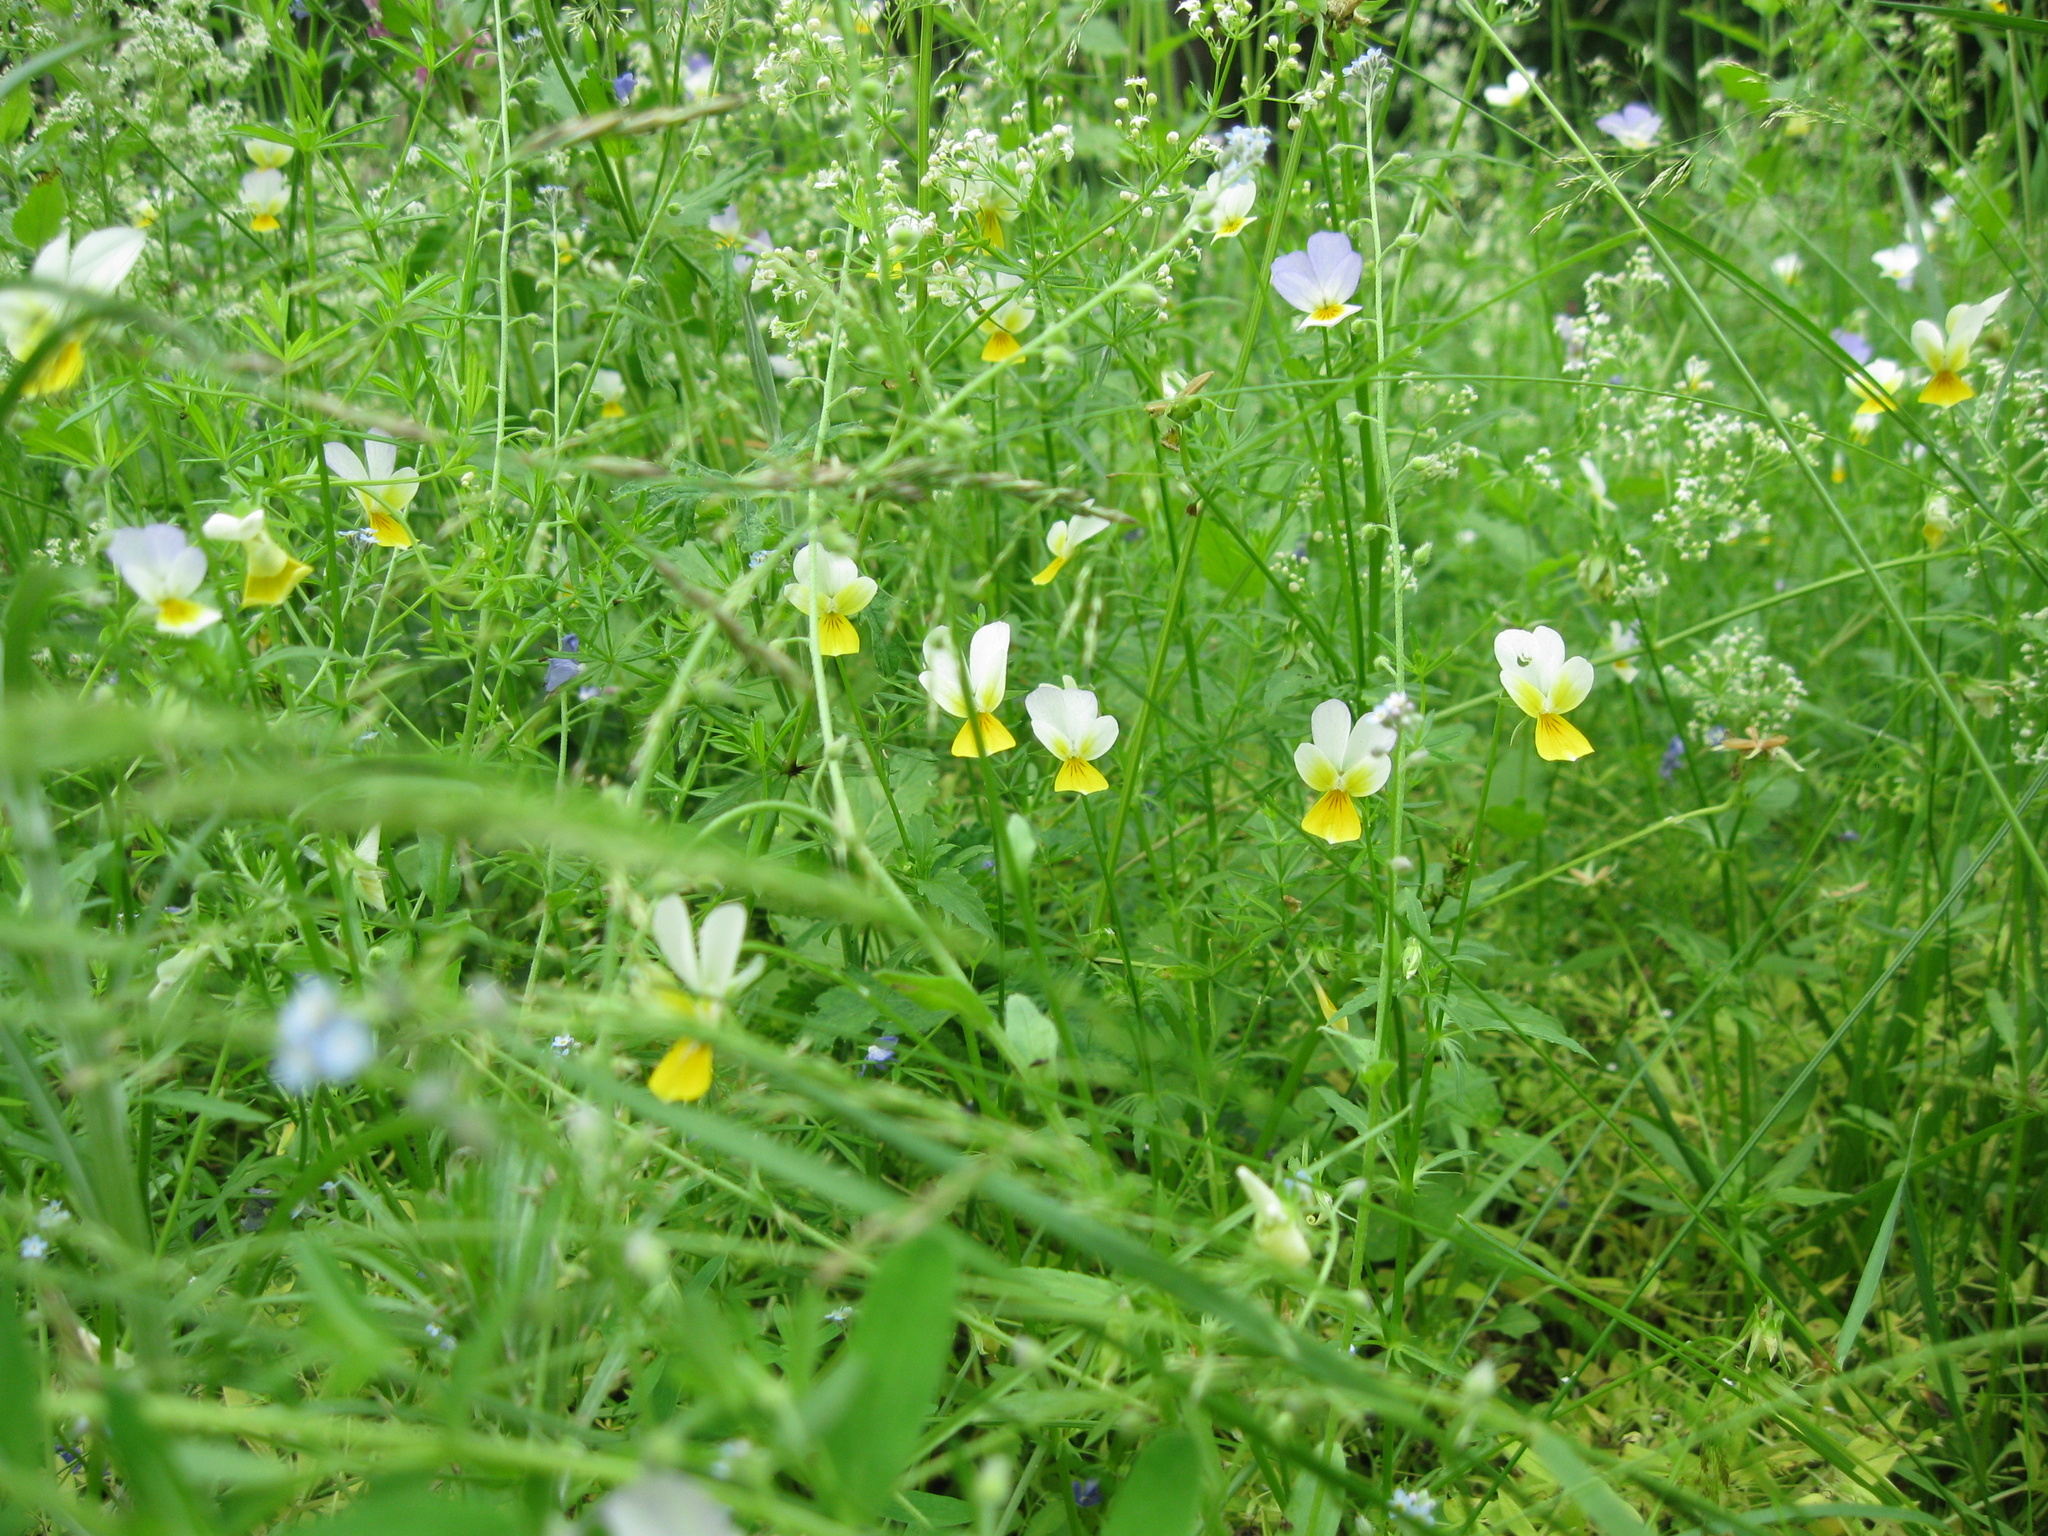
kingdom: Plantae
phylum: Tracheophyta
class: Magnoliopsida
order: Malpighiales
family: Violaceae
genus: Viola
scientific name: Viola tricolor
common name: Pansy
